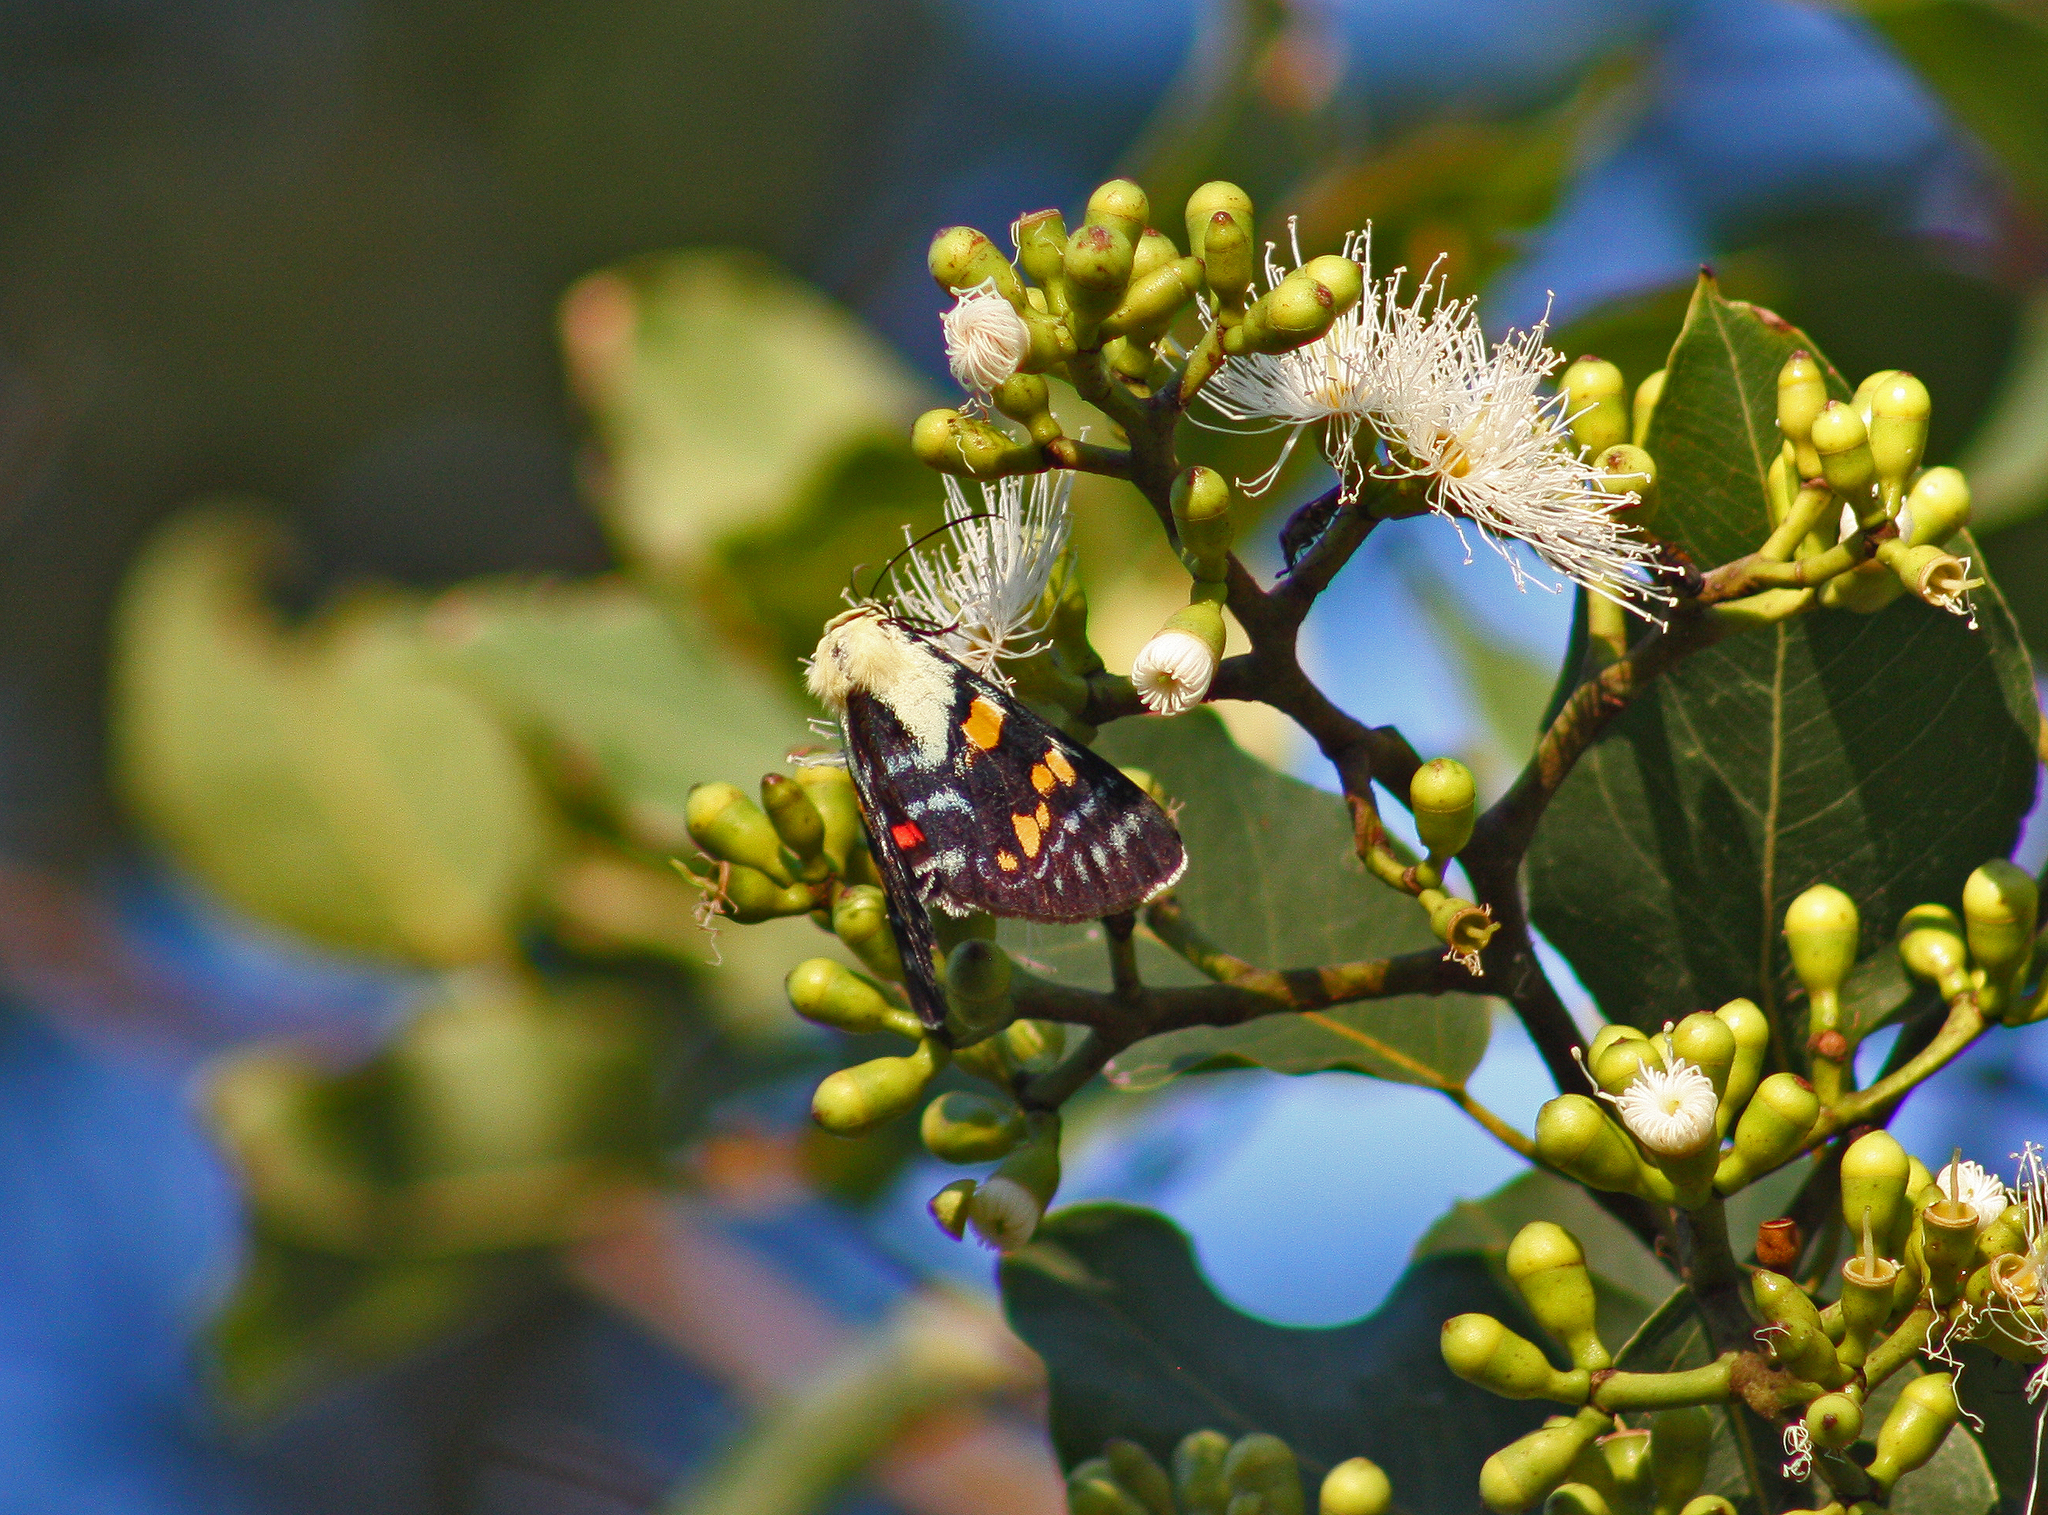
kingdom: Animalia
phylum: Arthropoda
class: Insecta
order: Lepidoptera
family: Noctuidae
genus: Agarista
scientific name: Agarista agricola
